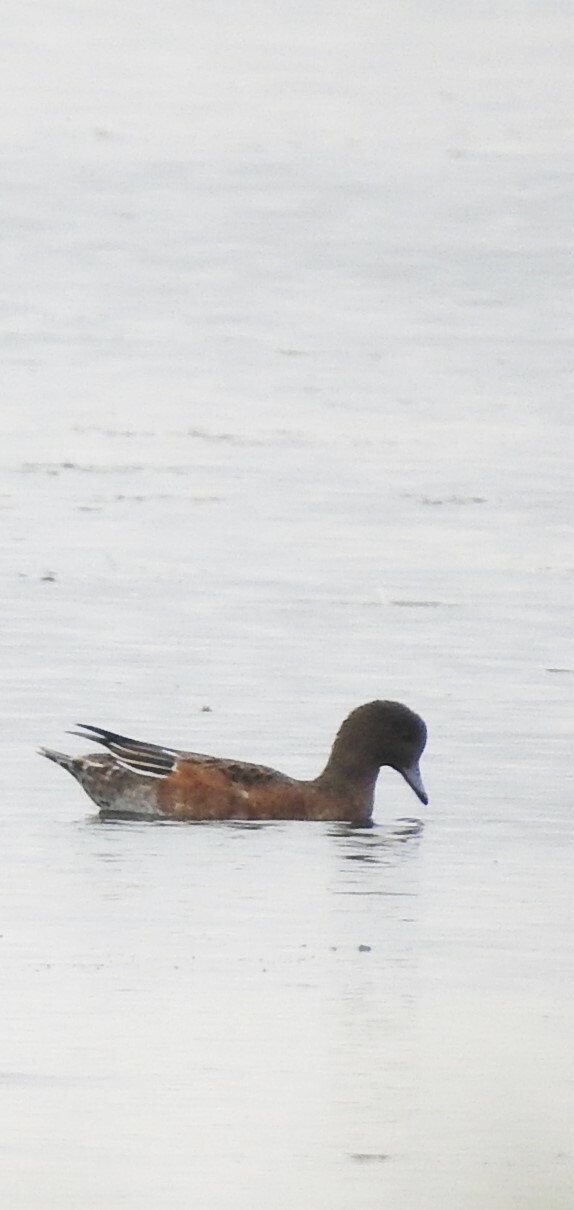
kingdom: Animalia
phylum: Chordata
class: Aves
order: Anseriformes
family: Anatidae
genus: Mareca
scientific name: Mareca penelope
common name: Eurasian wigeon
